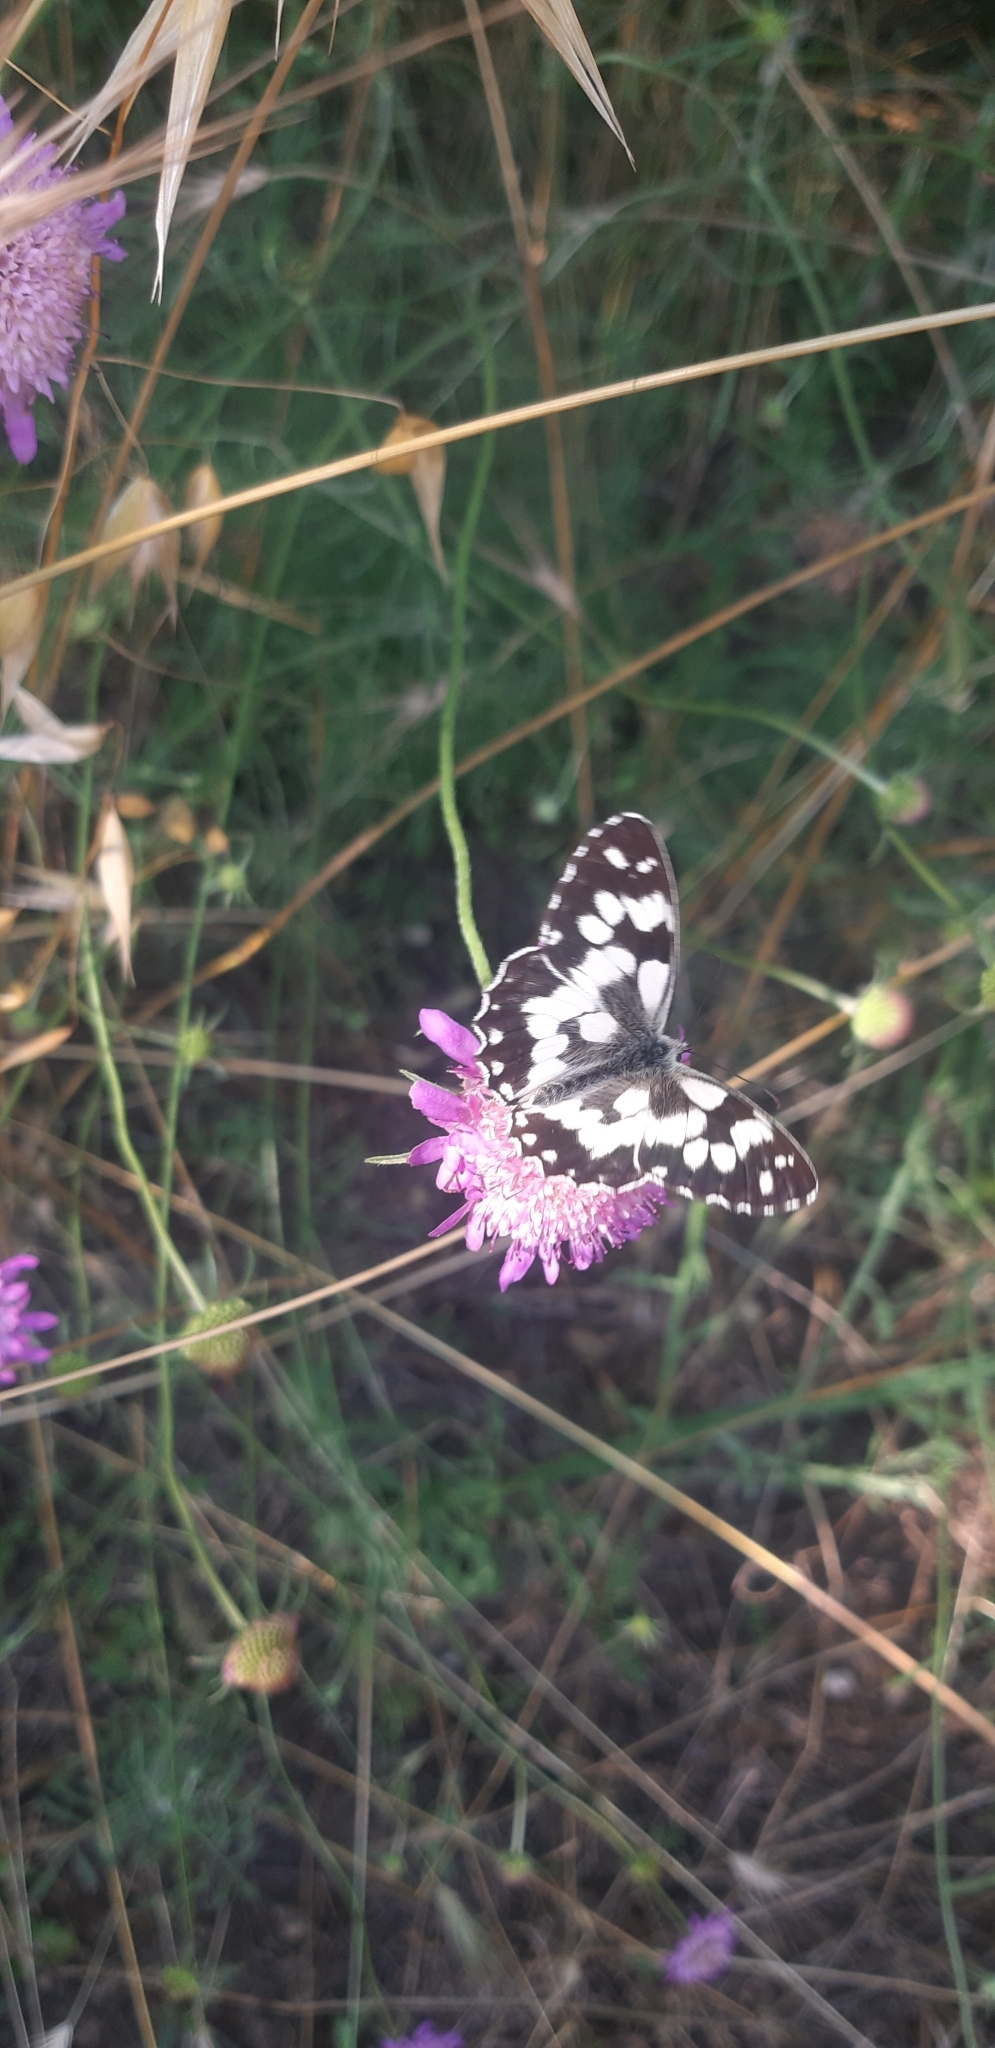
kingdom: Animalia
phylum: Arthropoda
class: Insecta
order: Lepidoptera
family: Nymphalidae
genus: Melanargia
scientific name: Melanargia galathea
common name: Marbled white
